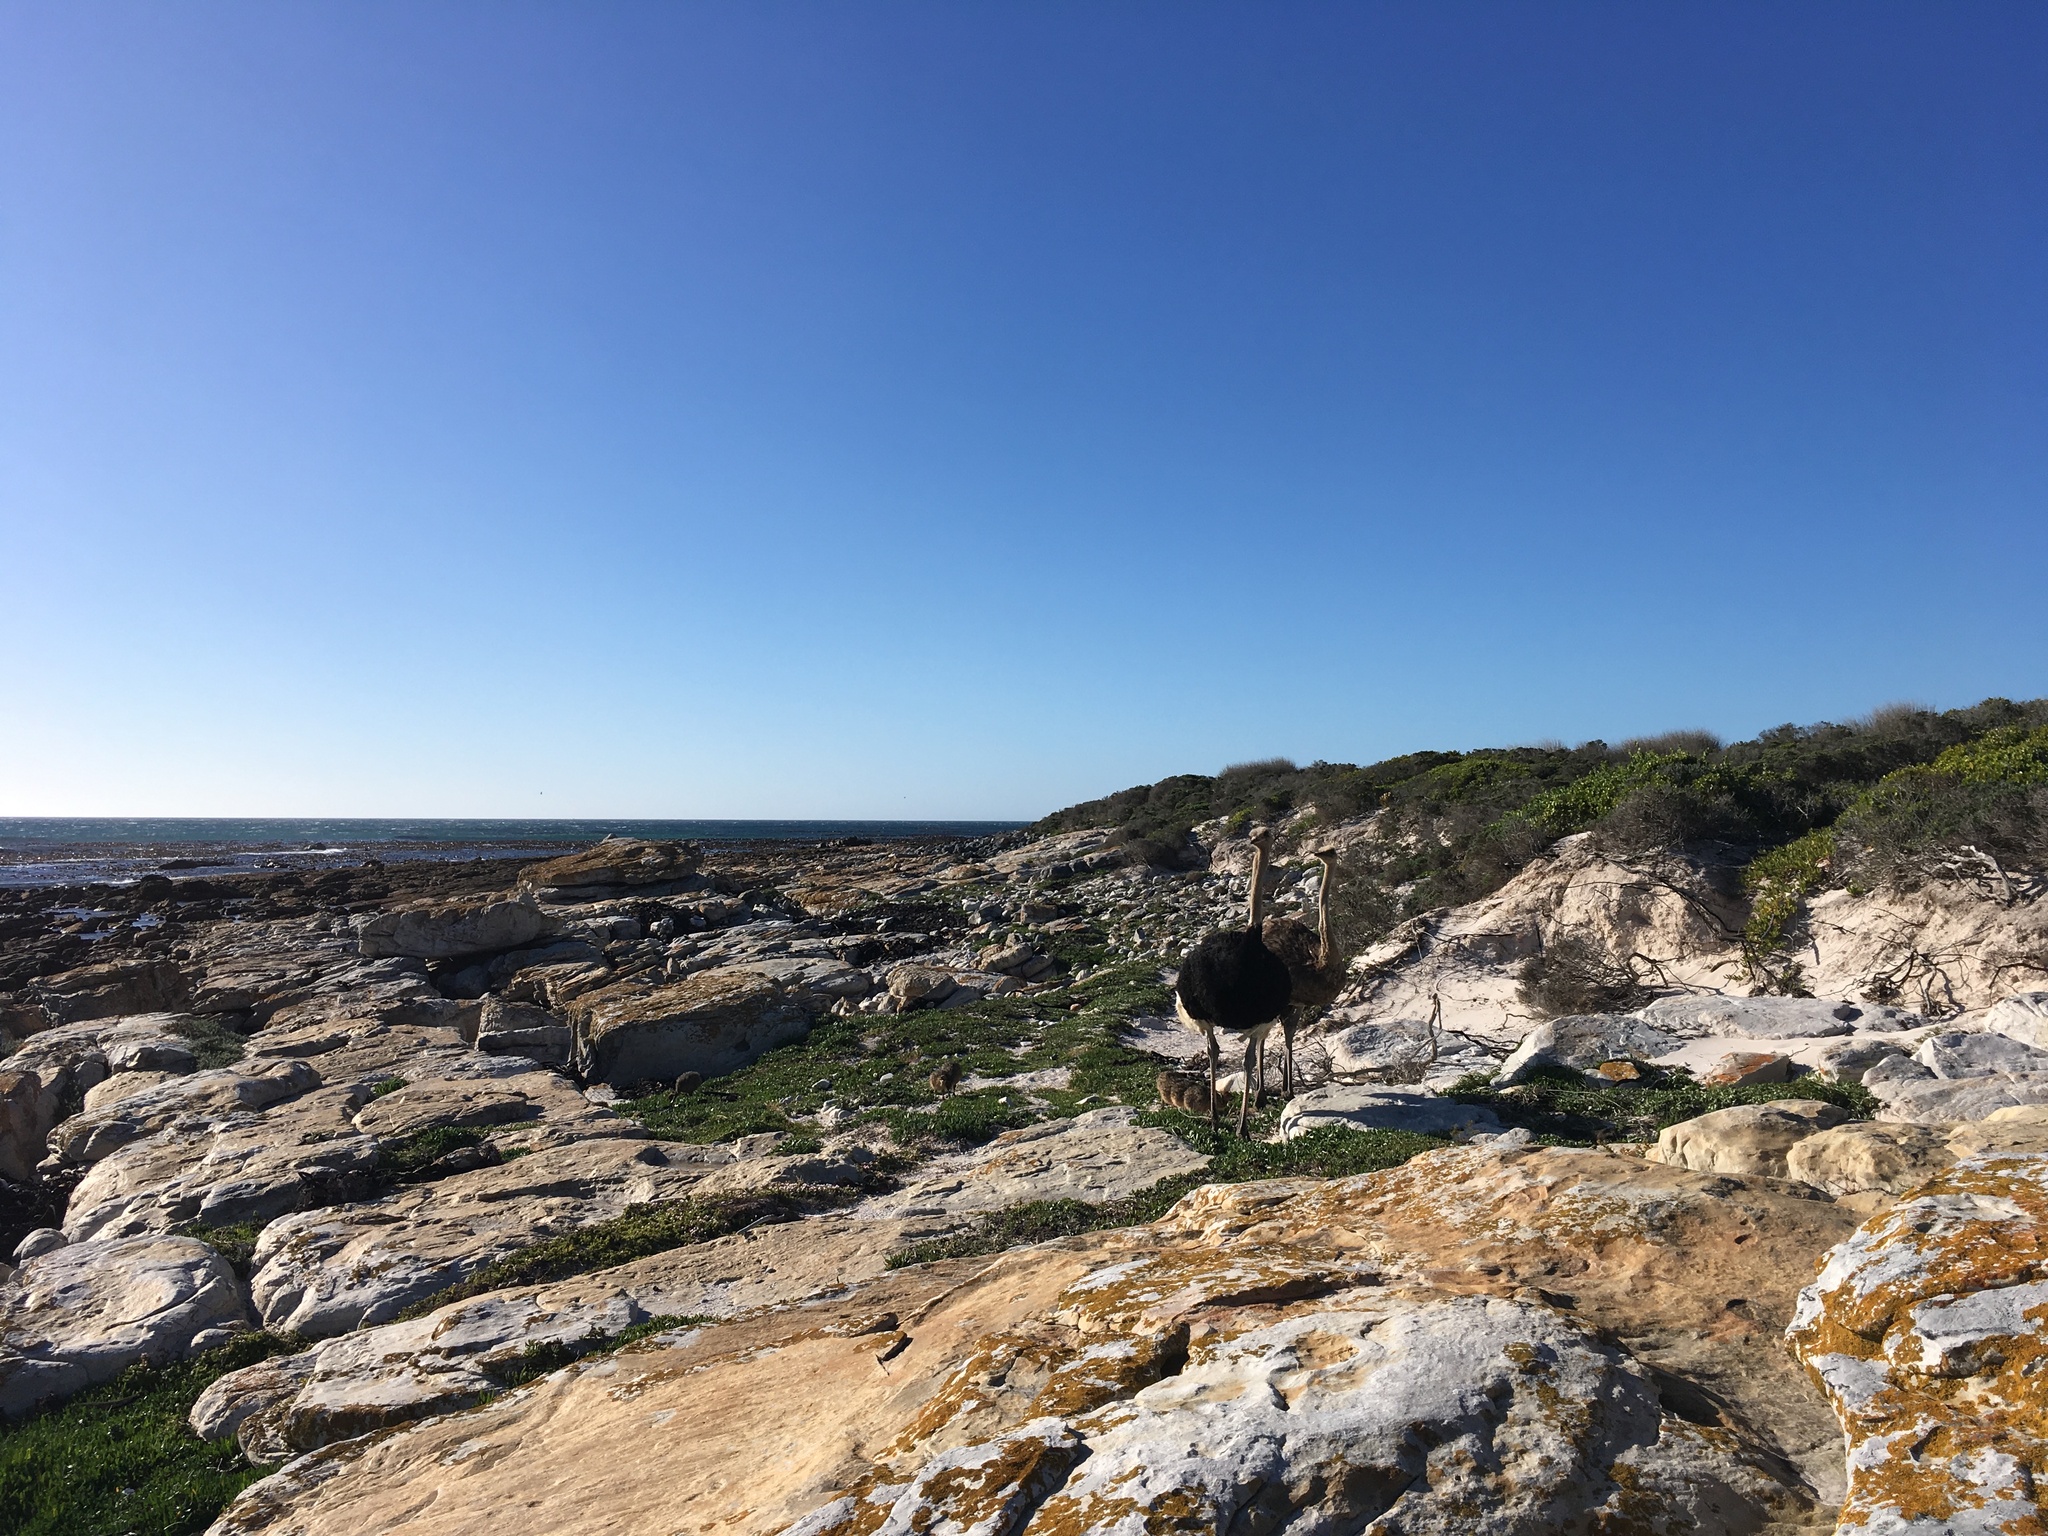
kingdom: Animalia
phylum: Chordata
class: Aves
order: Struthioniformes
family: Struthionidae
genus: Struthio
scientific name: Struthio camelus
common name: Common ostrich
